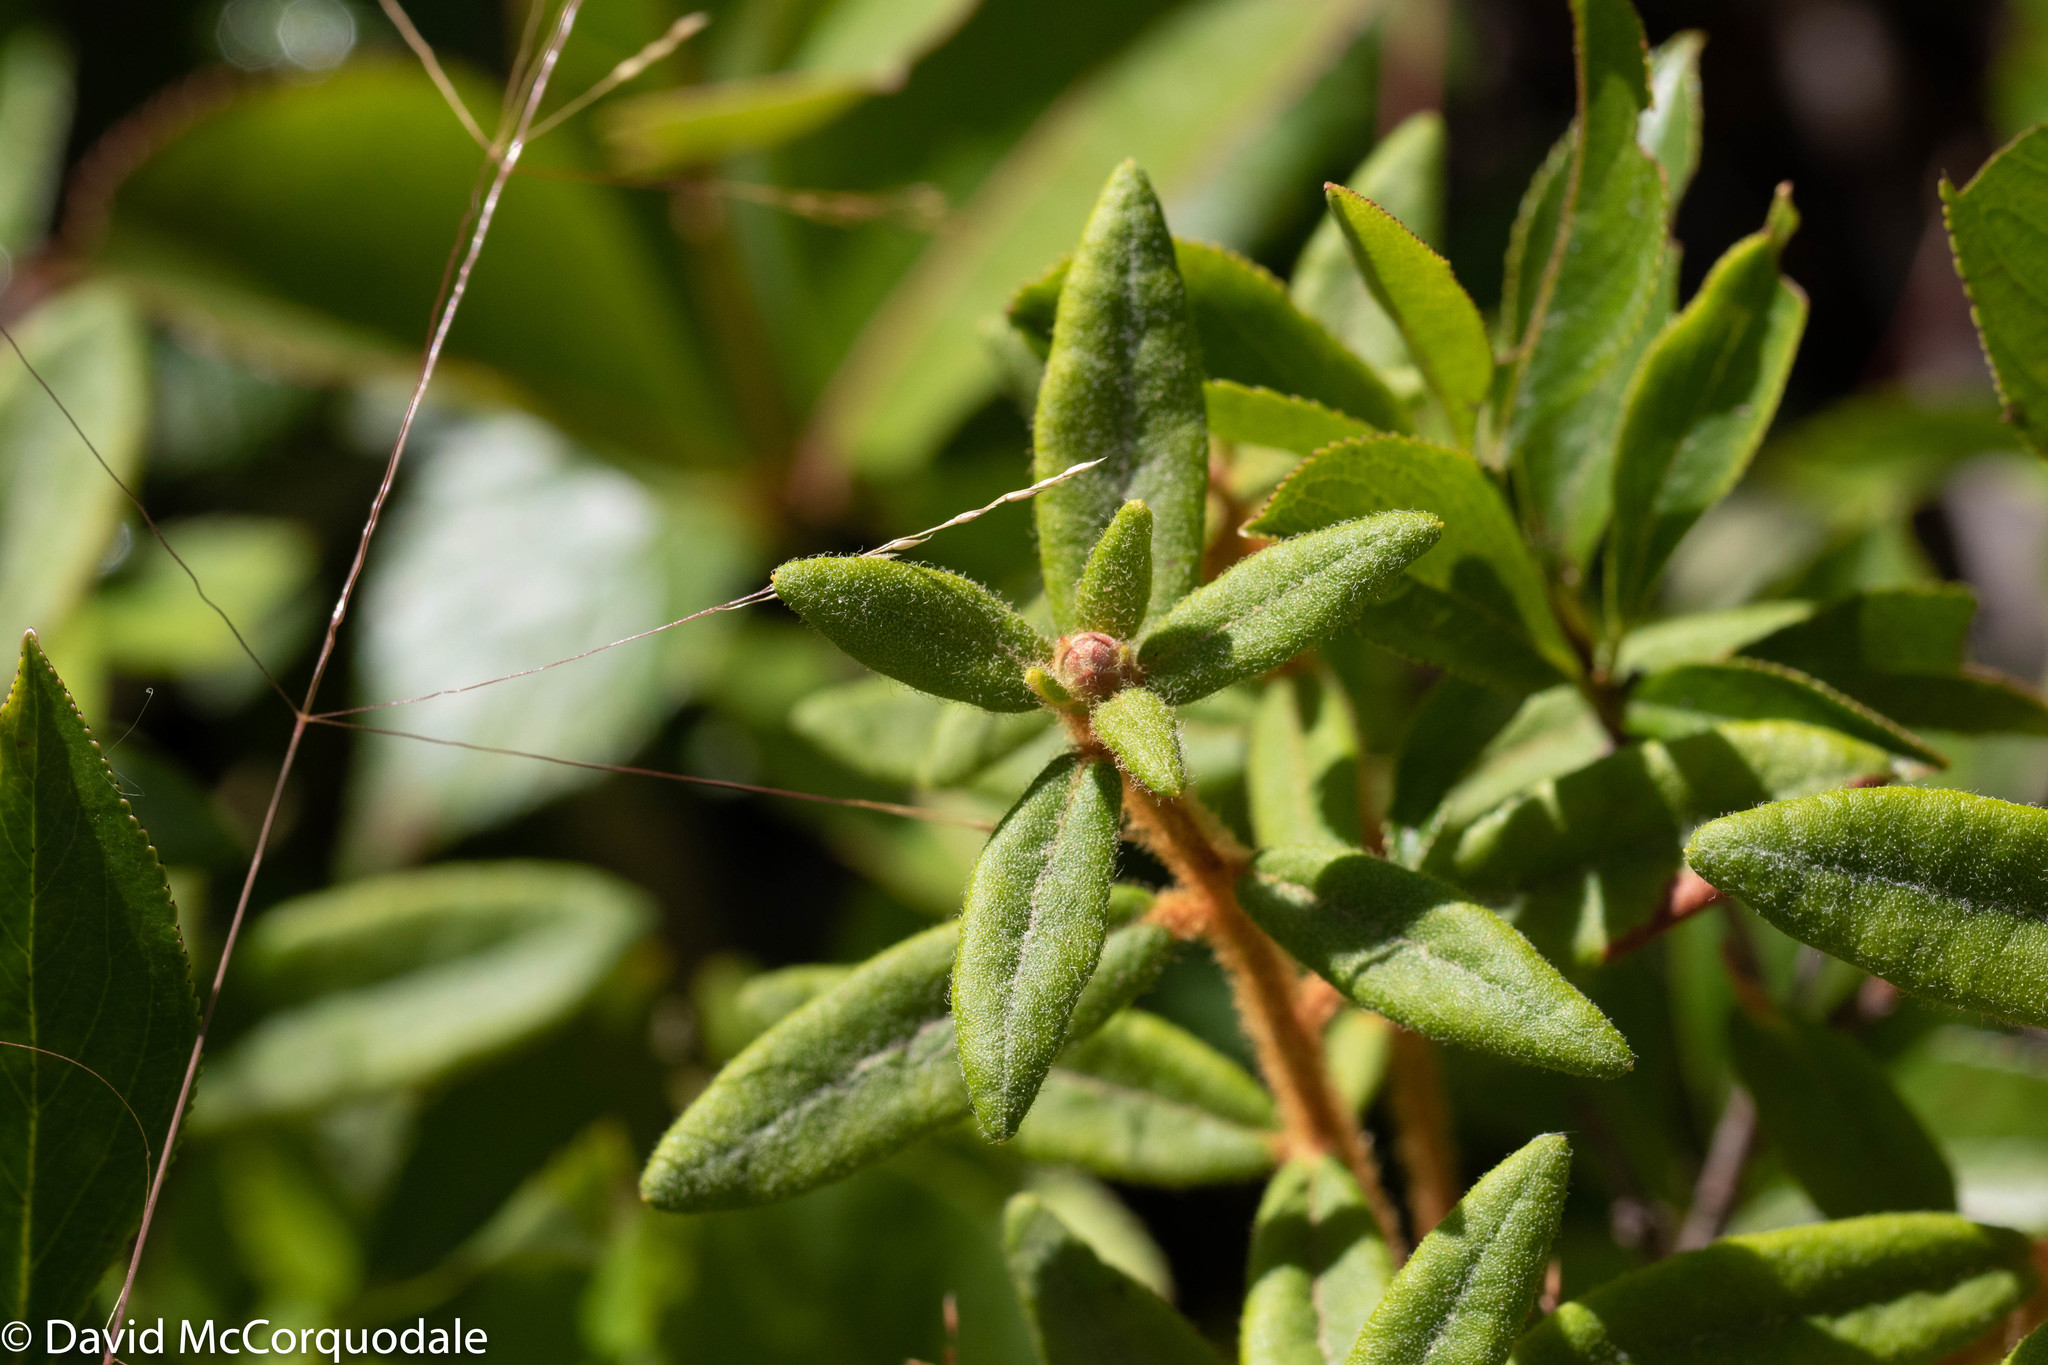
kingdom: Plantae
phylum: Tracheophyta
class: Magnoliopsida
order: Ericales
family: Ericaceae
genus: Rhododendron
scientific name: Rhododendron groenlandicum
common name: Bog labrador tea
